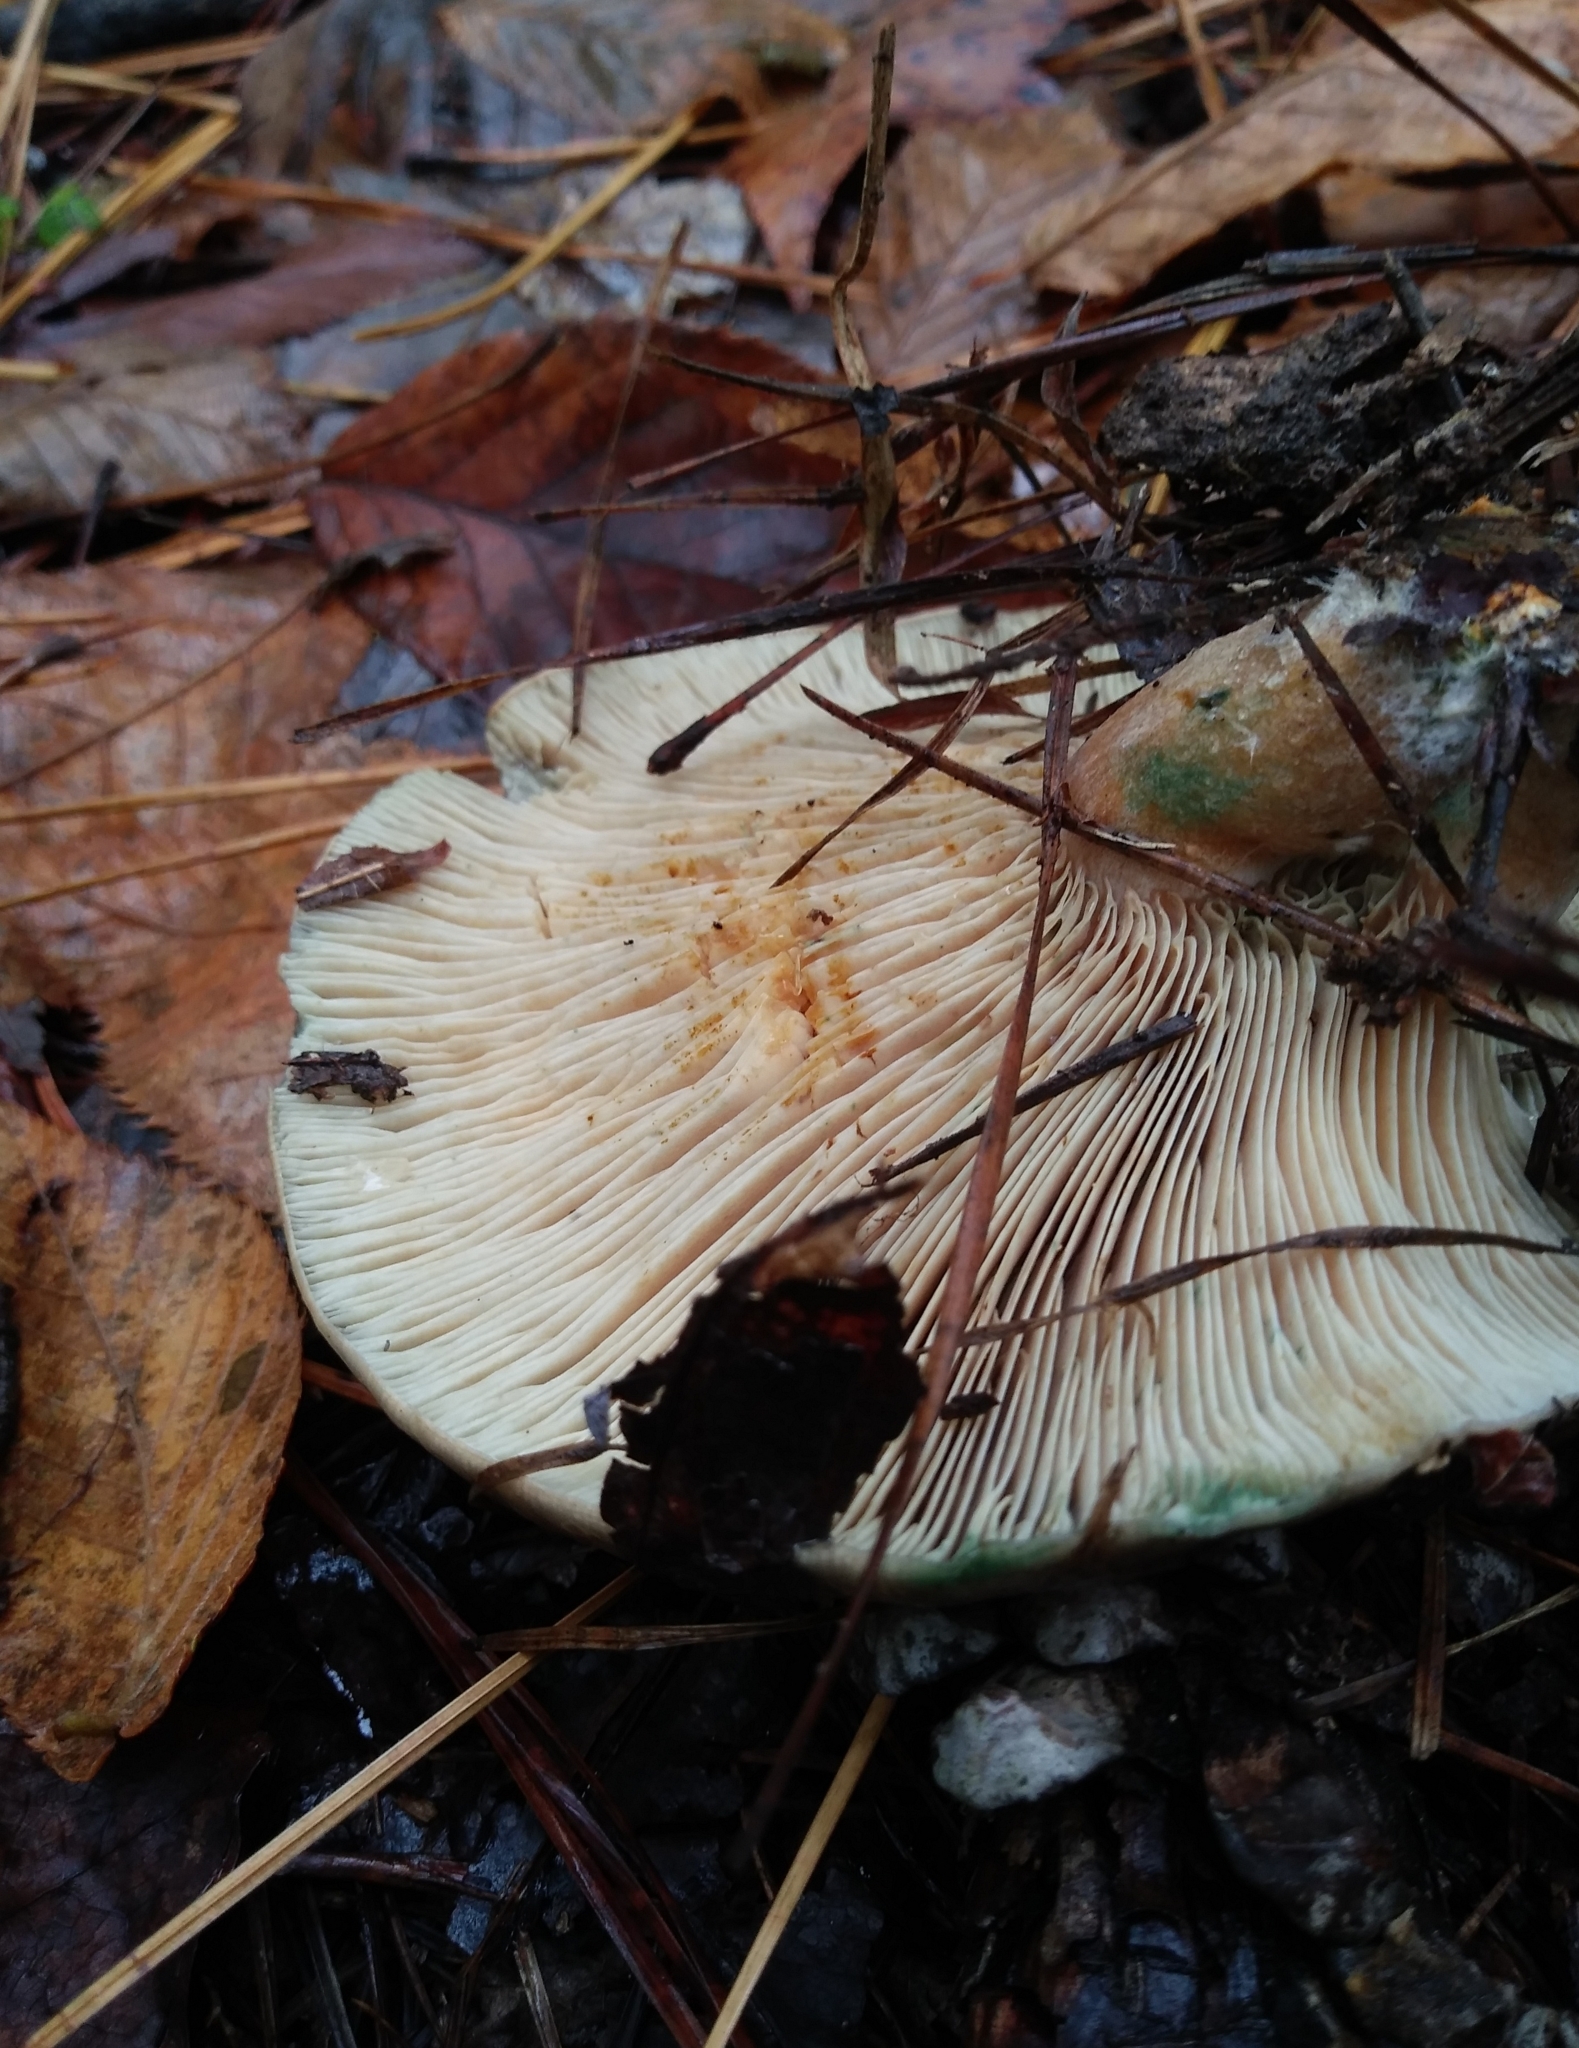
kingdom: Fungi
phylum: Basidiomycota
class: Agaricomycetes
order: Russulales
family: Russulaceae
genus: Lactarius
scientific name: Lactarius paradoxus
